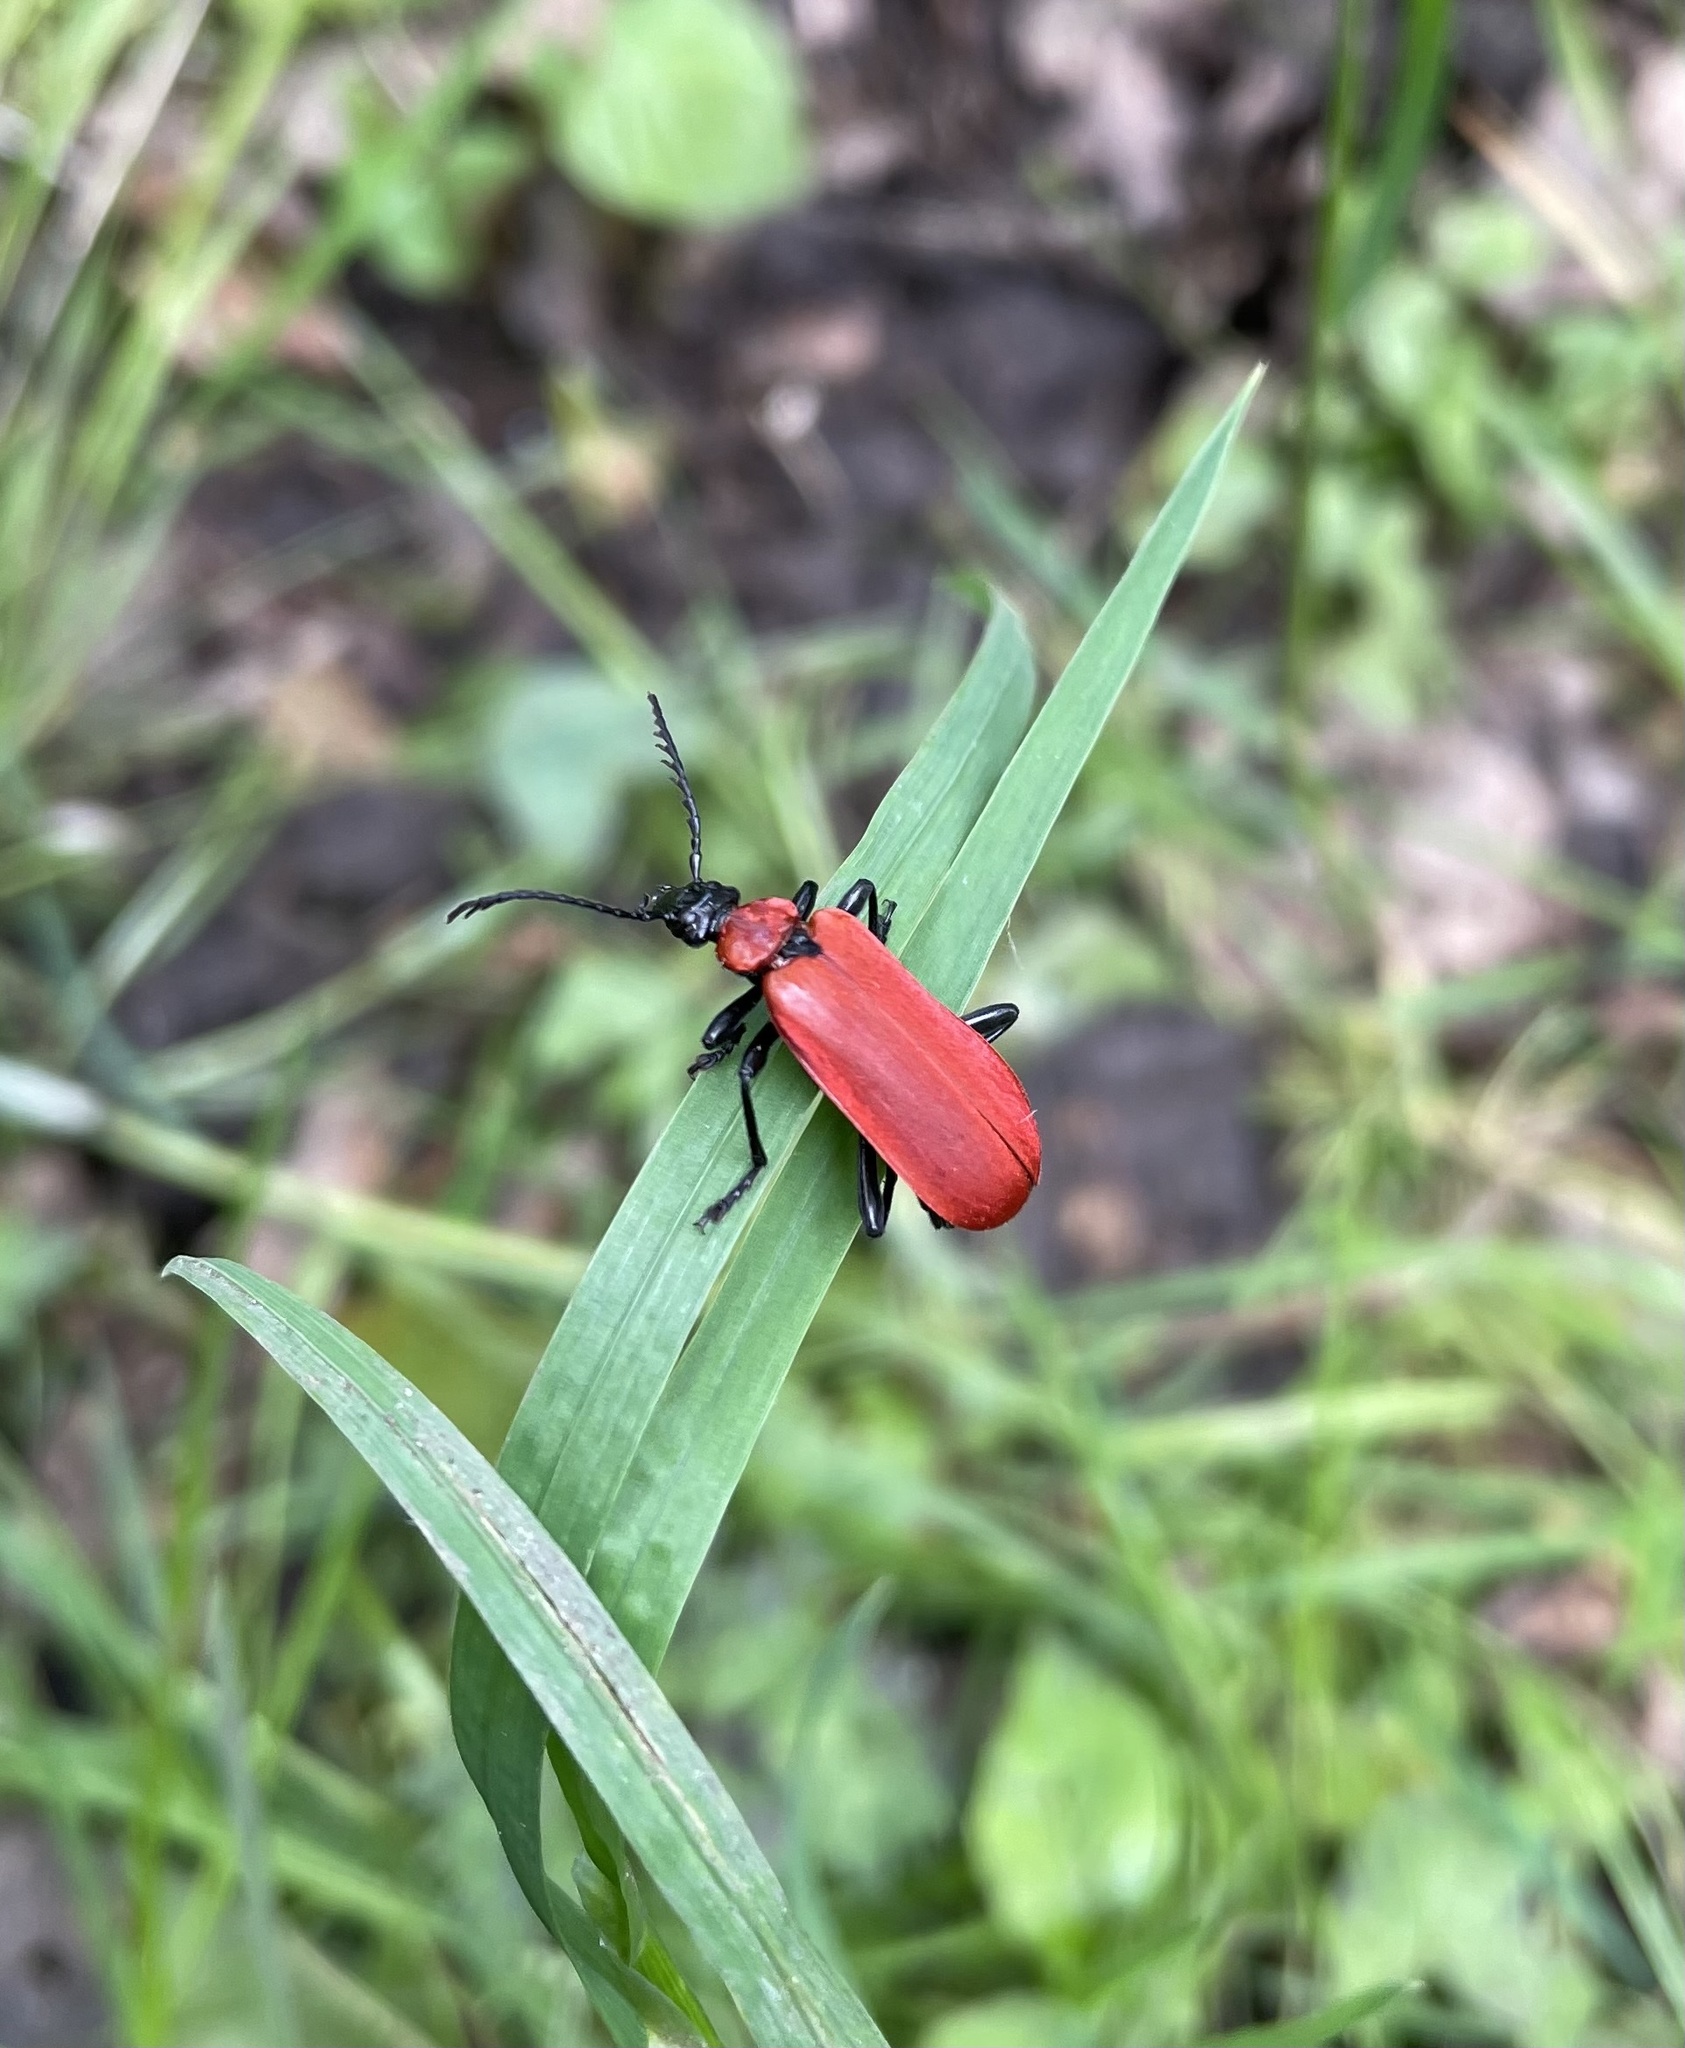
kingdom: Animalia
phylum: Arthropoda
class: Insecta
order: Coleoptera
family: Pyrochroidae
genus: Pyrochroa
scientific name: Pyrochroa coccinea
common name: Black-headed cardinal beetle
